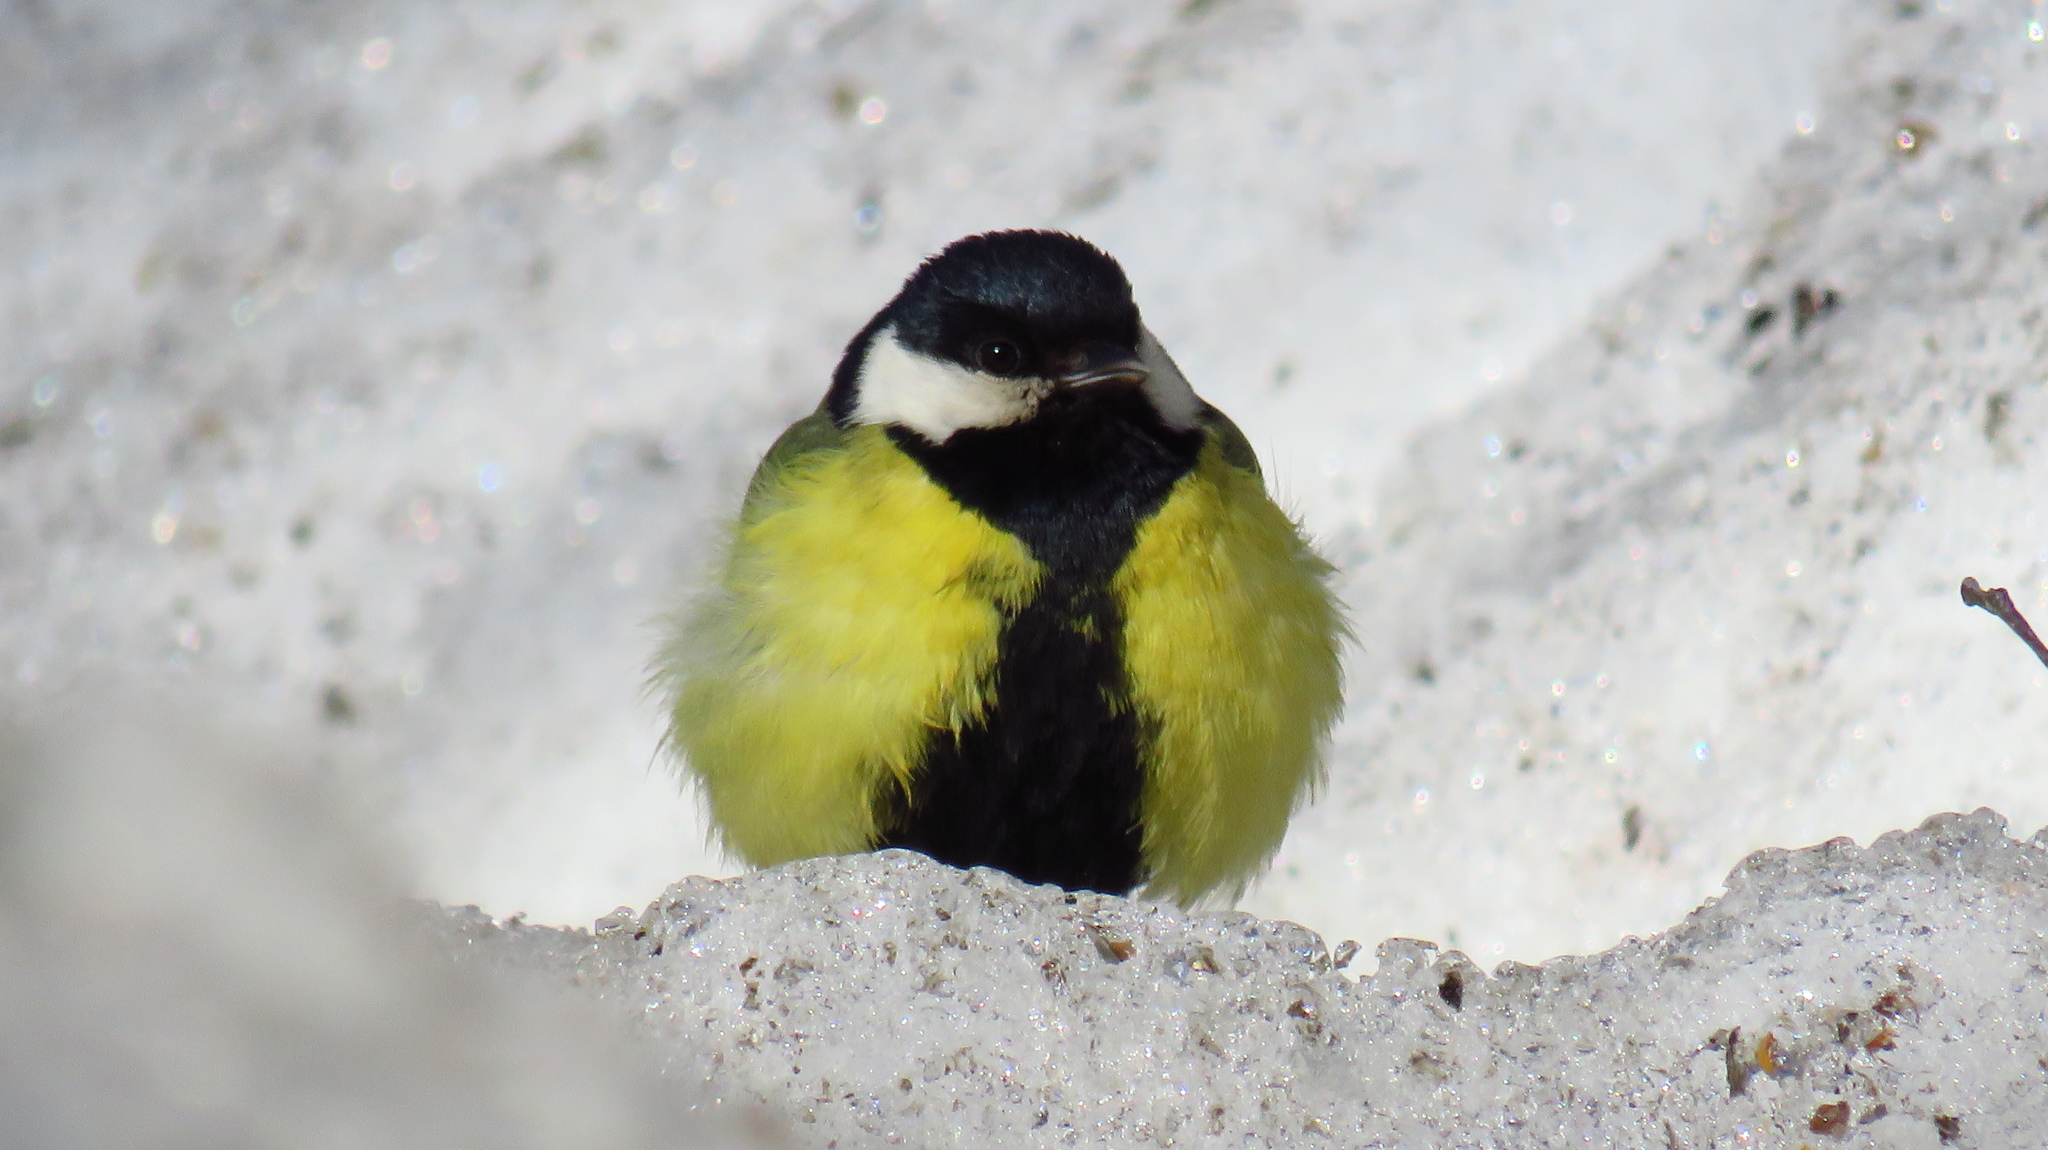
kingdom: Animalia
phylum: Chordata
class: Aves
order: Passeriformes
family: Paridae
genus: Parus
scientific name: Parus major
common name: Great tit
